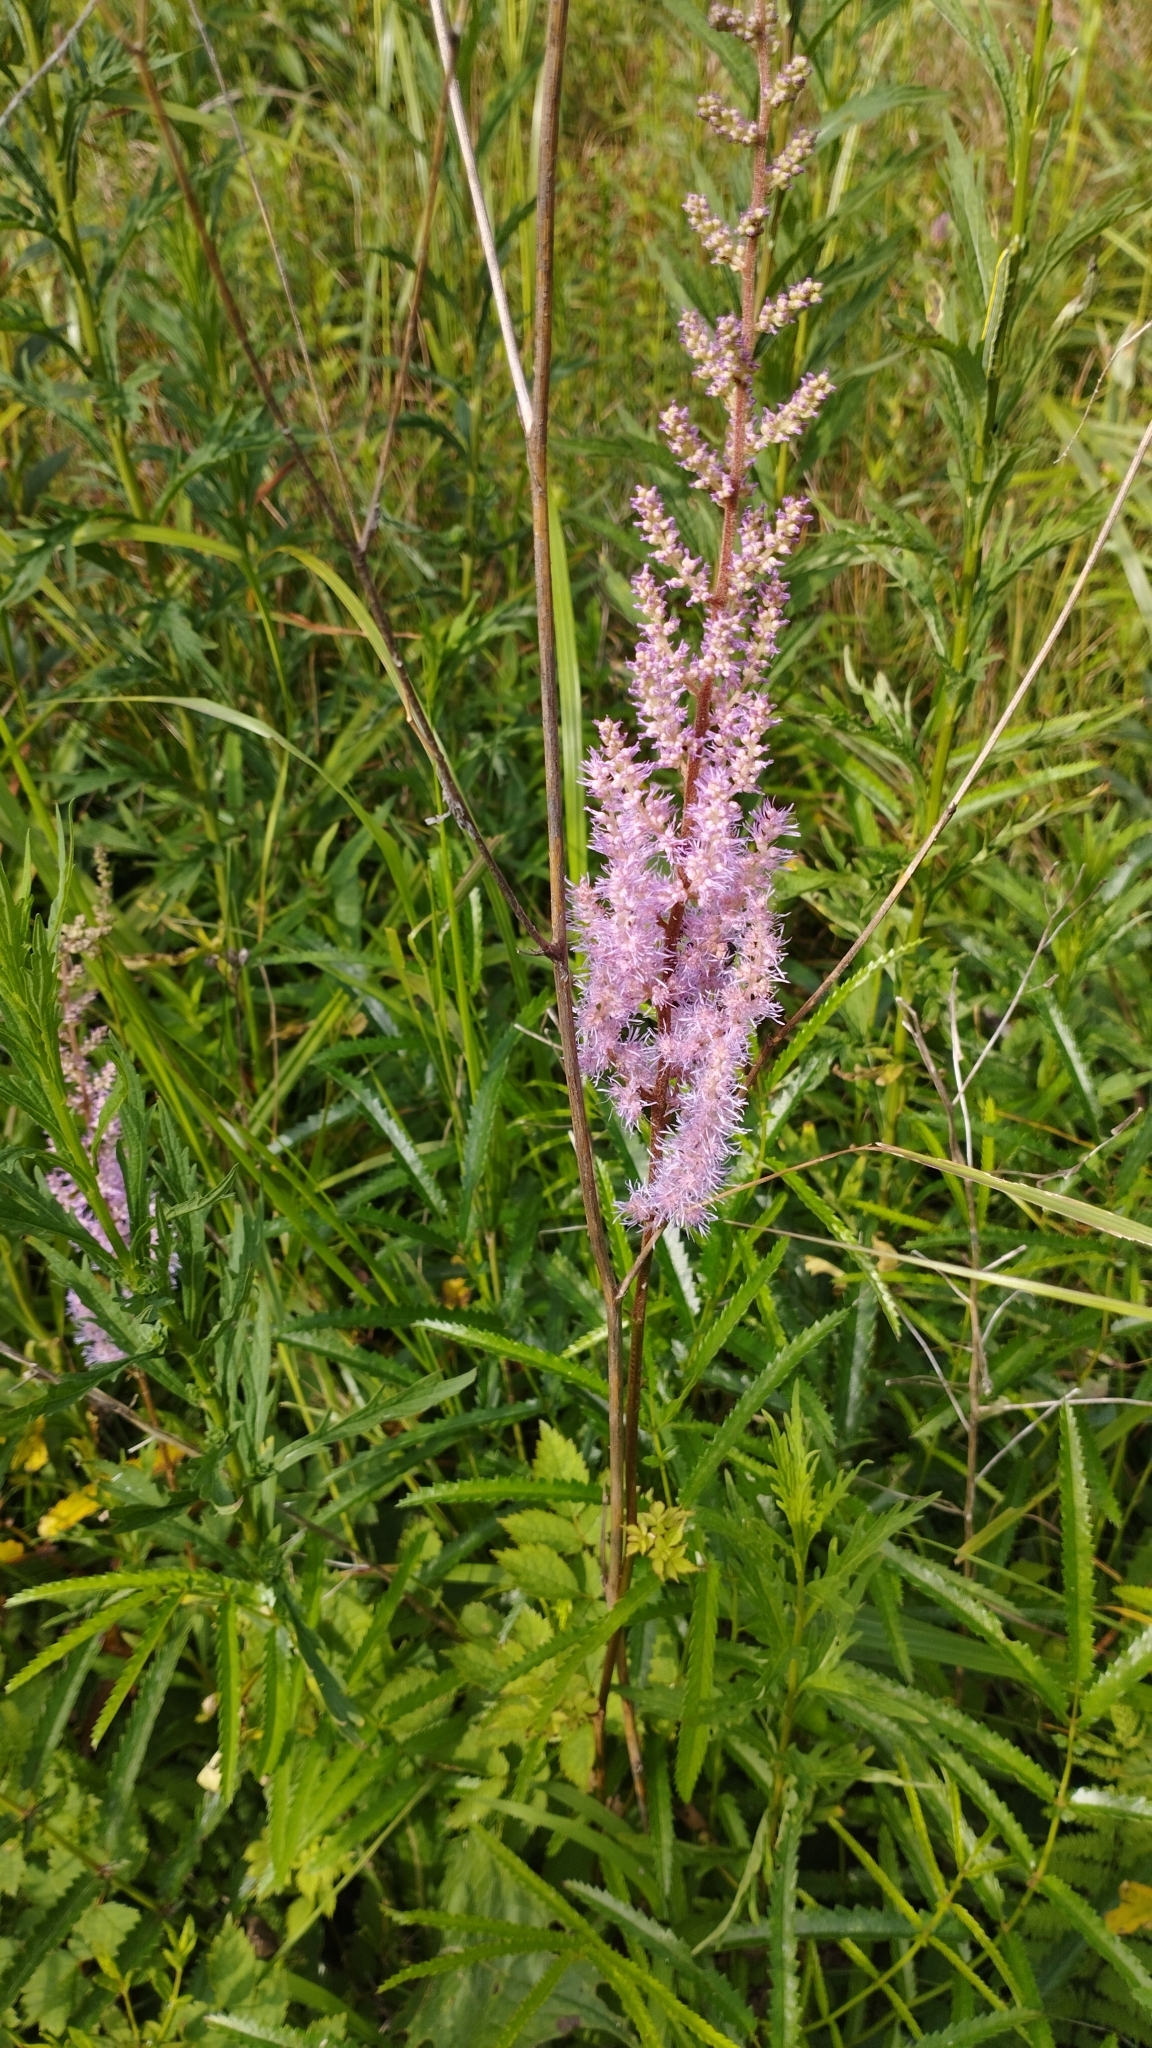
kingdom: Plantae
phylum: Tracheophyta
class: Magnoliopsida
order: Saxifragales
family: Saxifragaceae
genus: Astilbe
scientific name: Astilbe rubra
